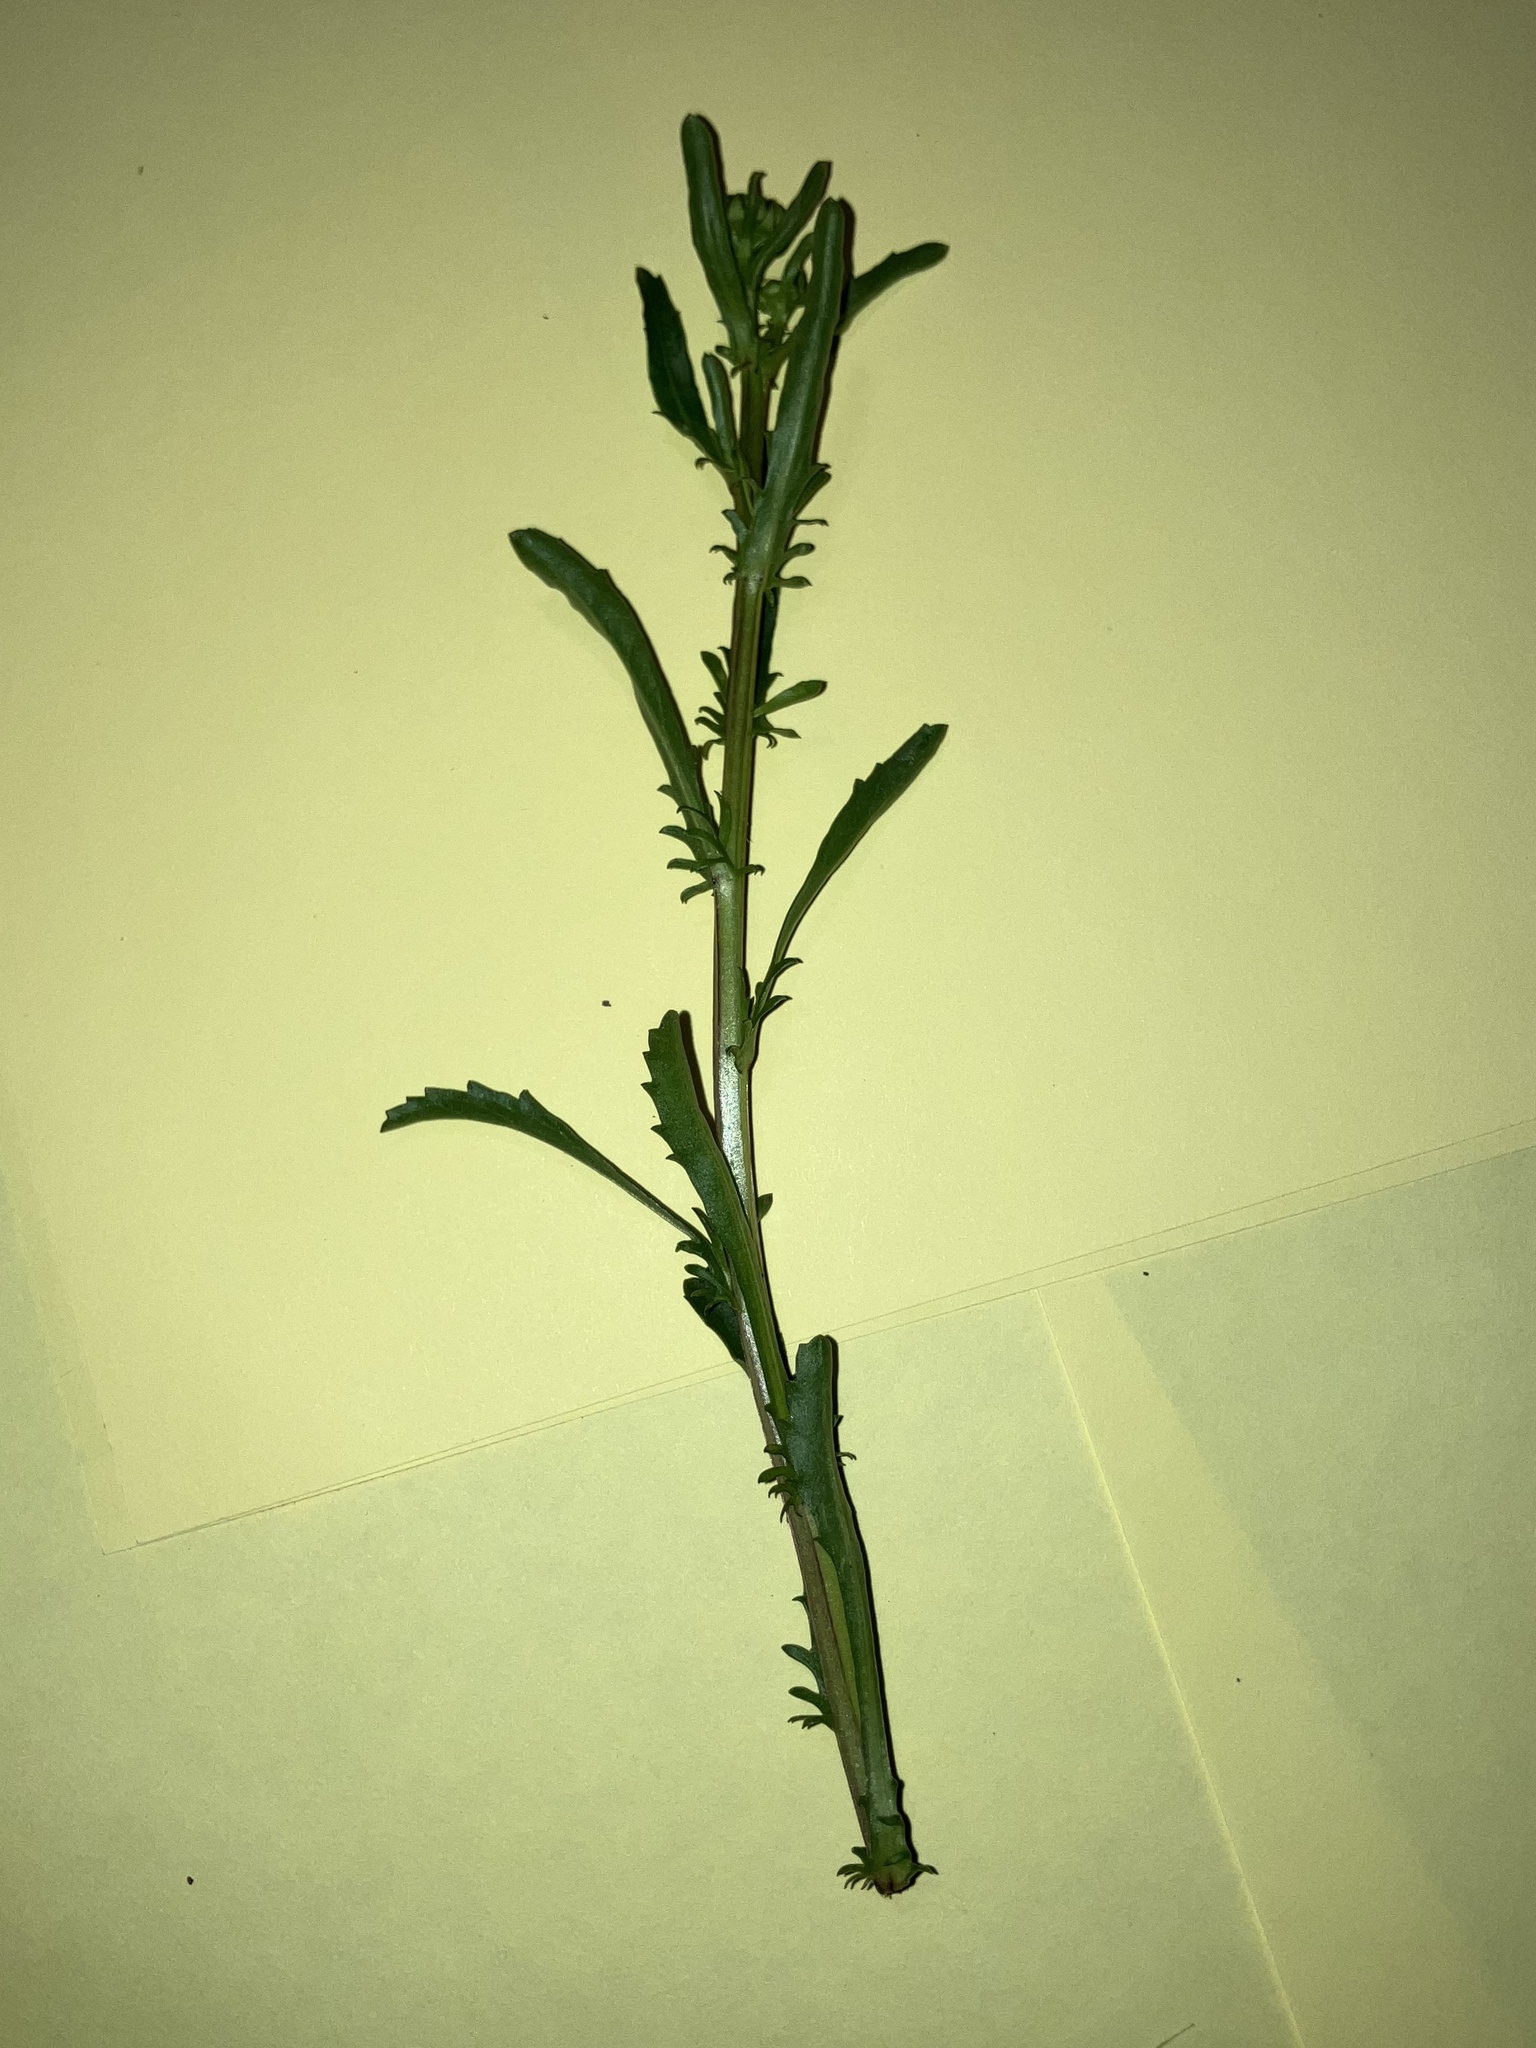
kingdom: Plantae
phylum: Tracheophyta
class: Magnoliopsida
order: Asterales
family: Asteraceae
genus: Leucanthemum
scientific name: Leucanthemum vulgare
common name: Oxeye daisy
